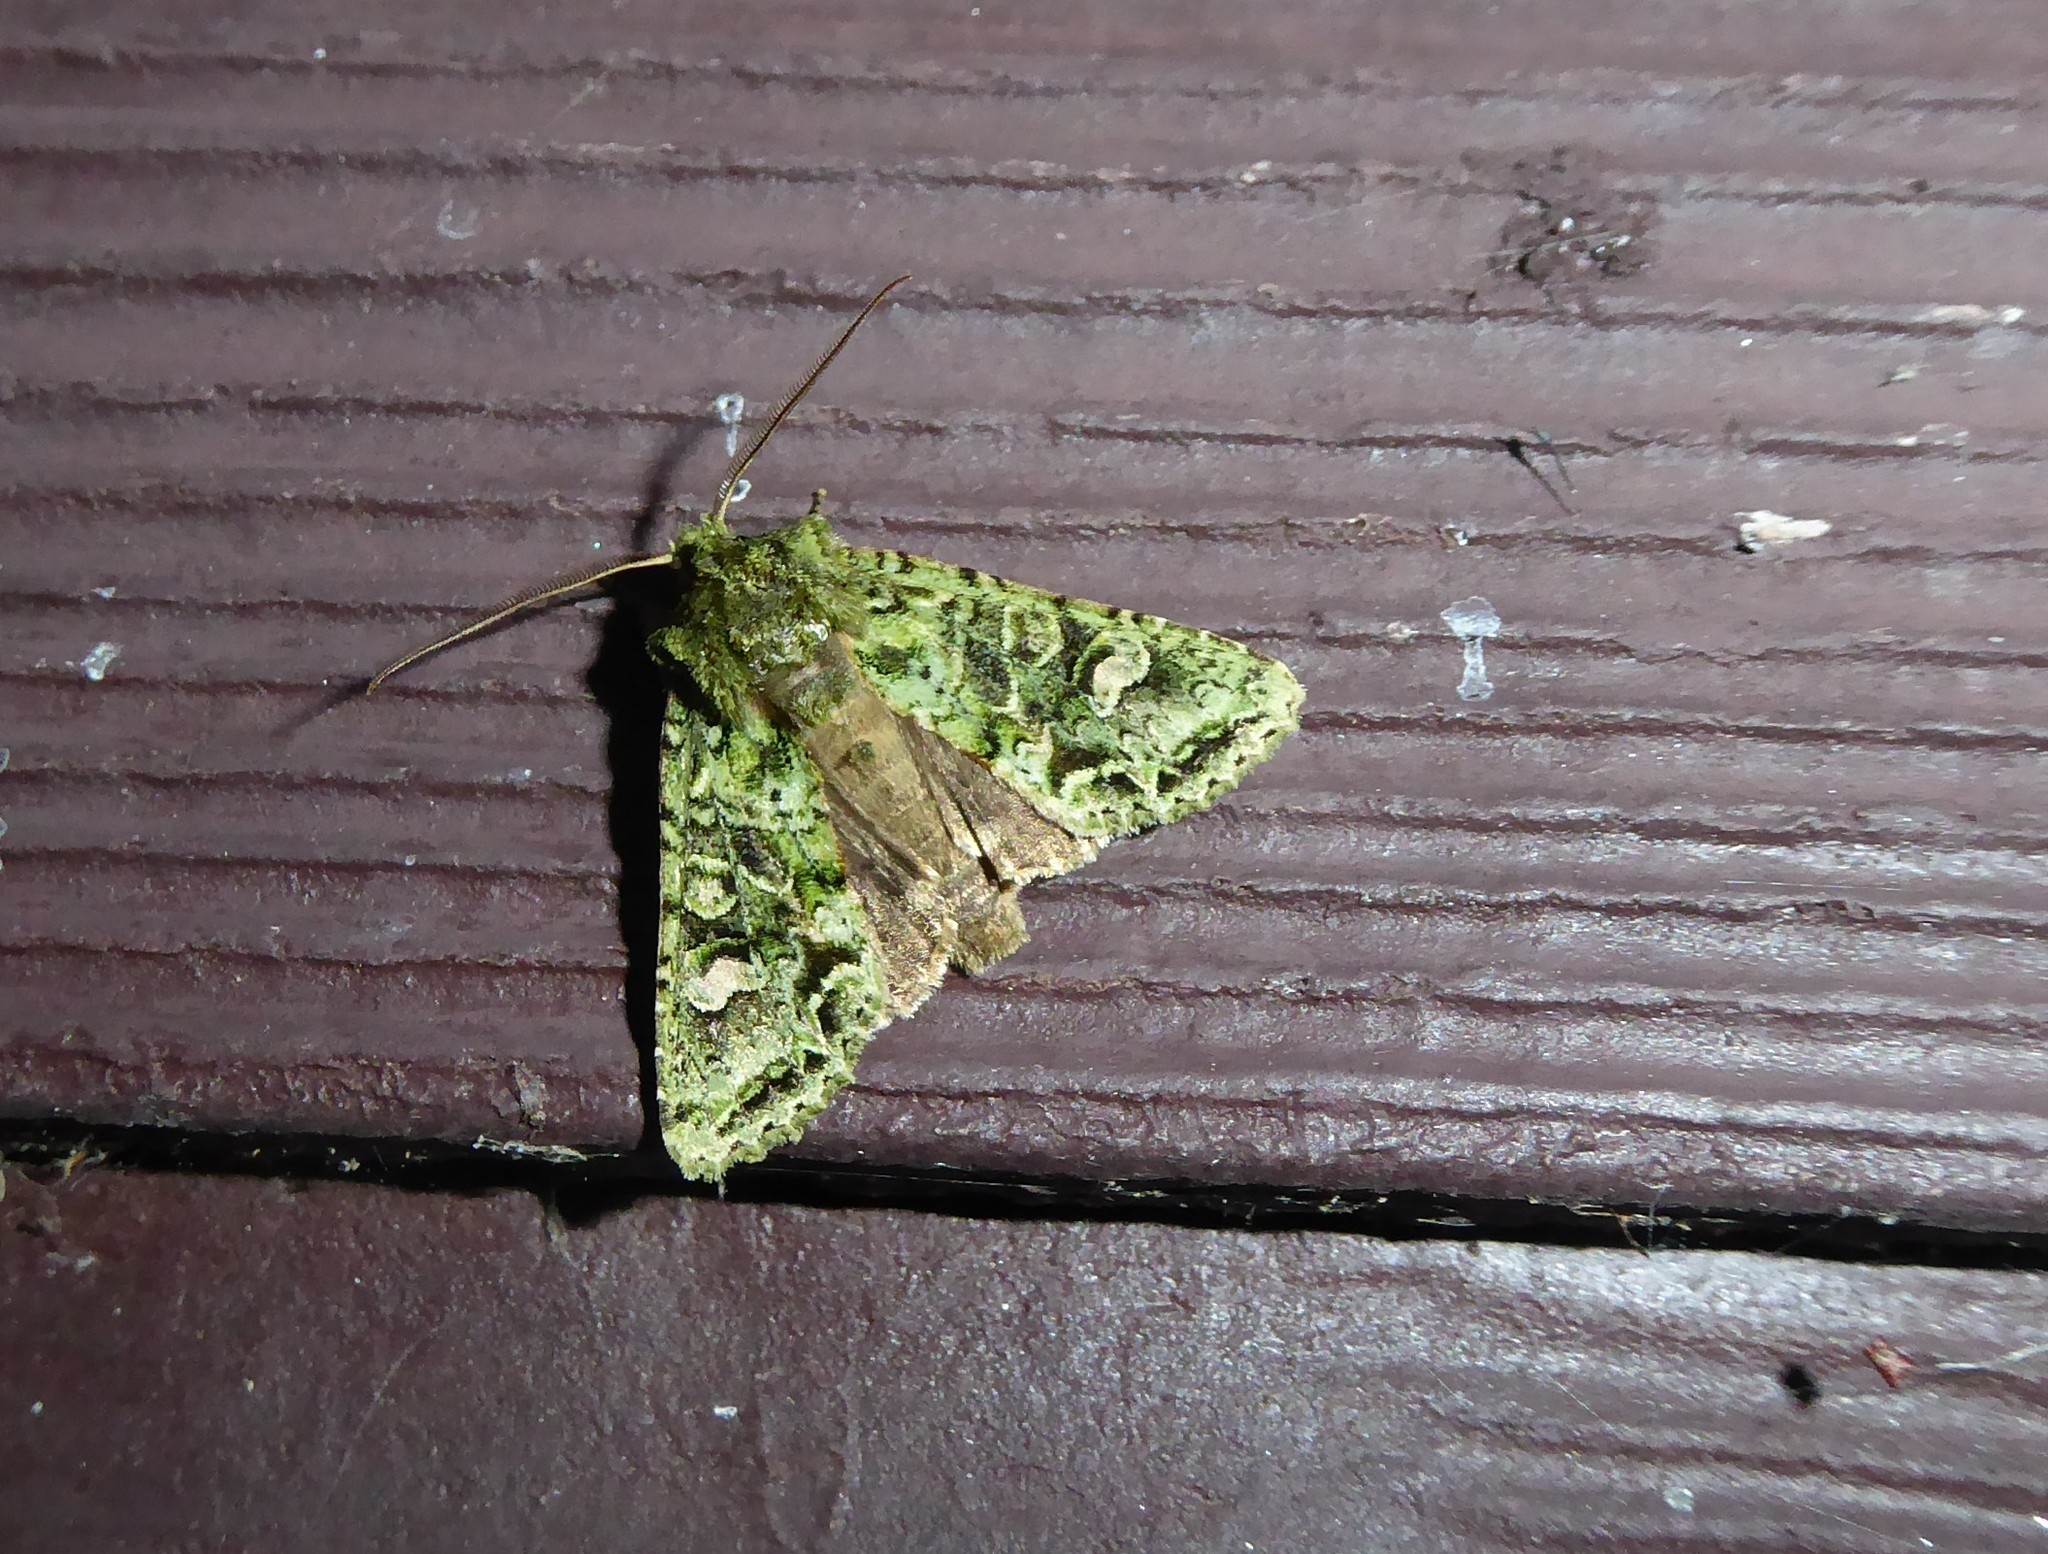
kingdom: Animalia
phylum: Arthropoda
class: Insecta
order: Lepidoptera
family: Noctuidae
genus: Ichneutica
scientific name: Ichneutica
